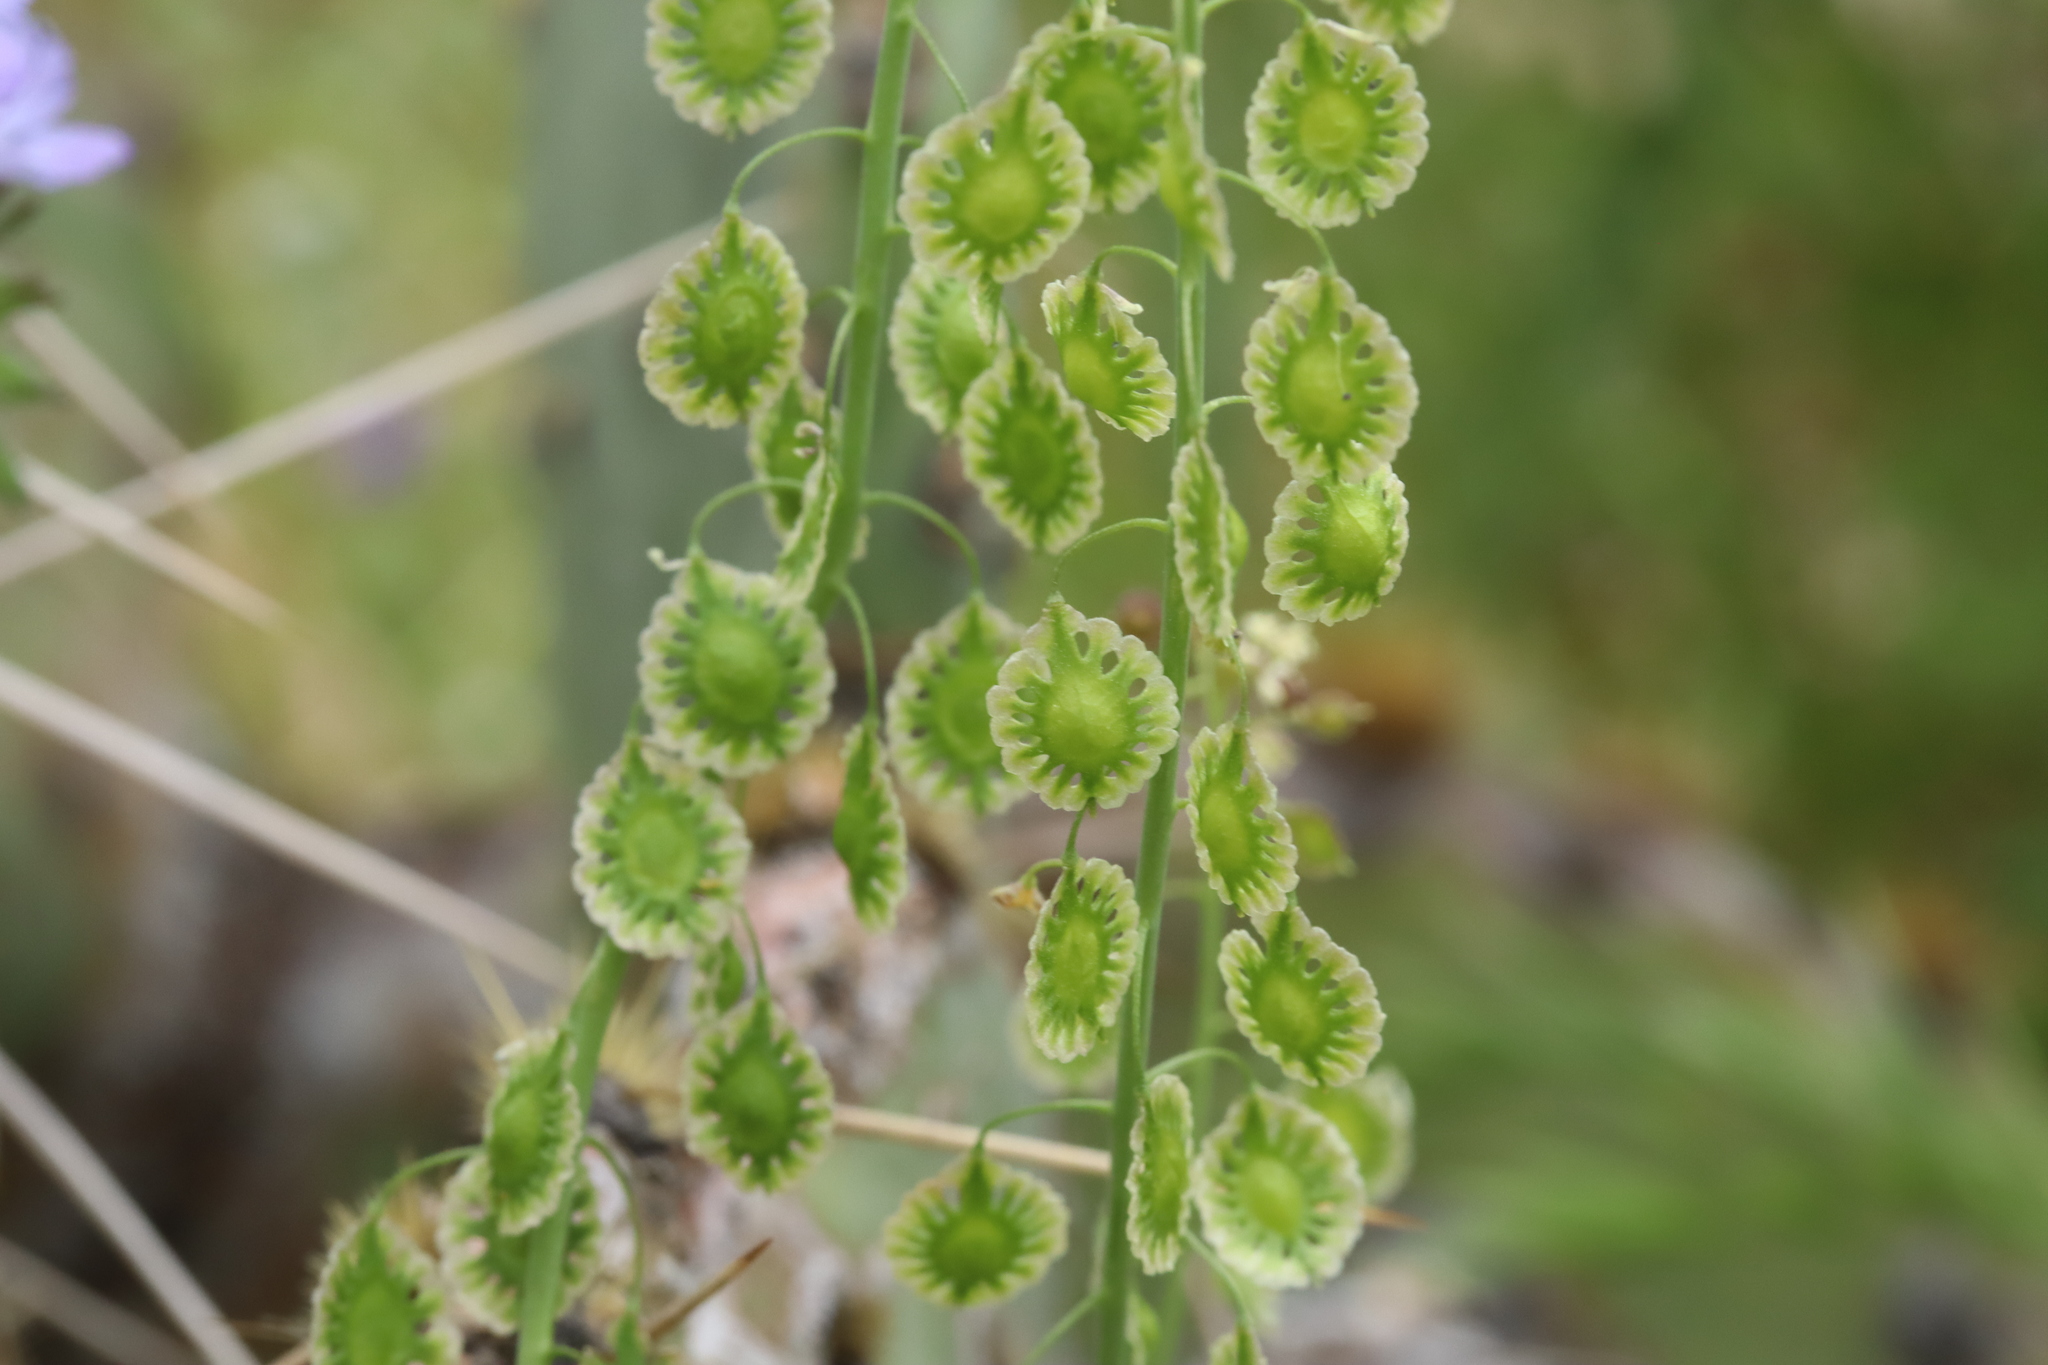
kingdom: Plantae
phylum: Tracheophyta
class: Magnoliopsida
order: Brassicales
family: Brassicaceae
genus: Thysanocarpus
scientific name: Thysanocarpus curvipes
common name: Sand fringepod
